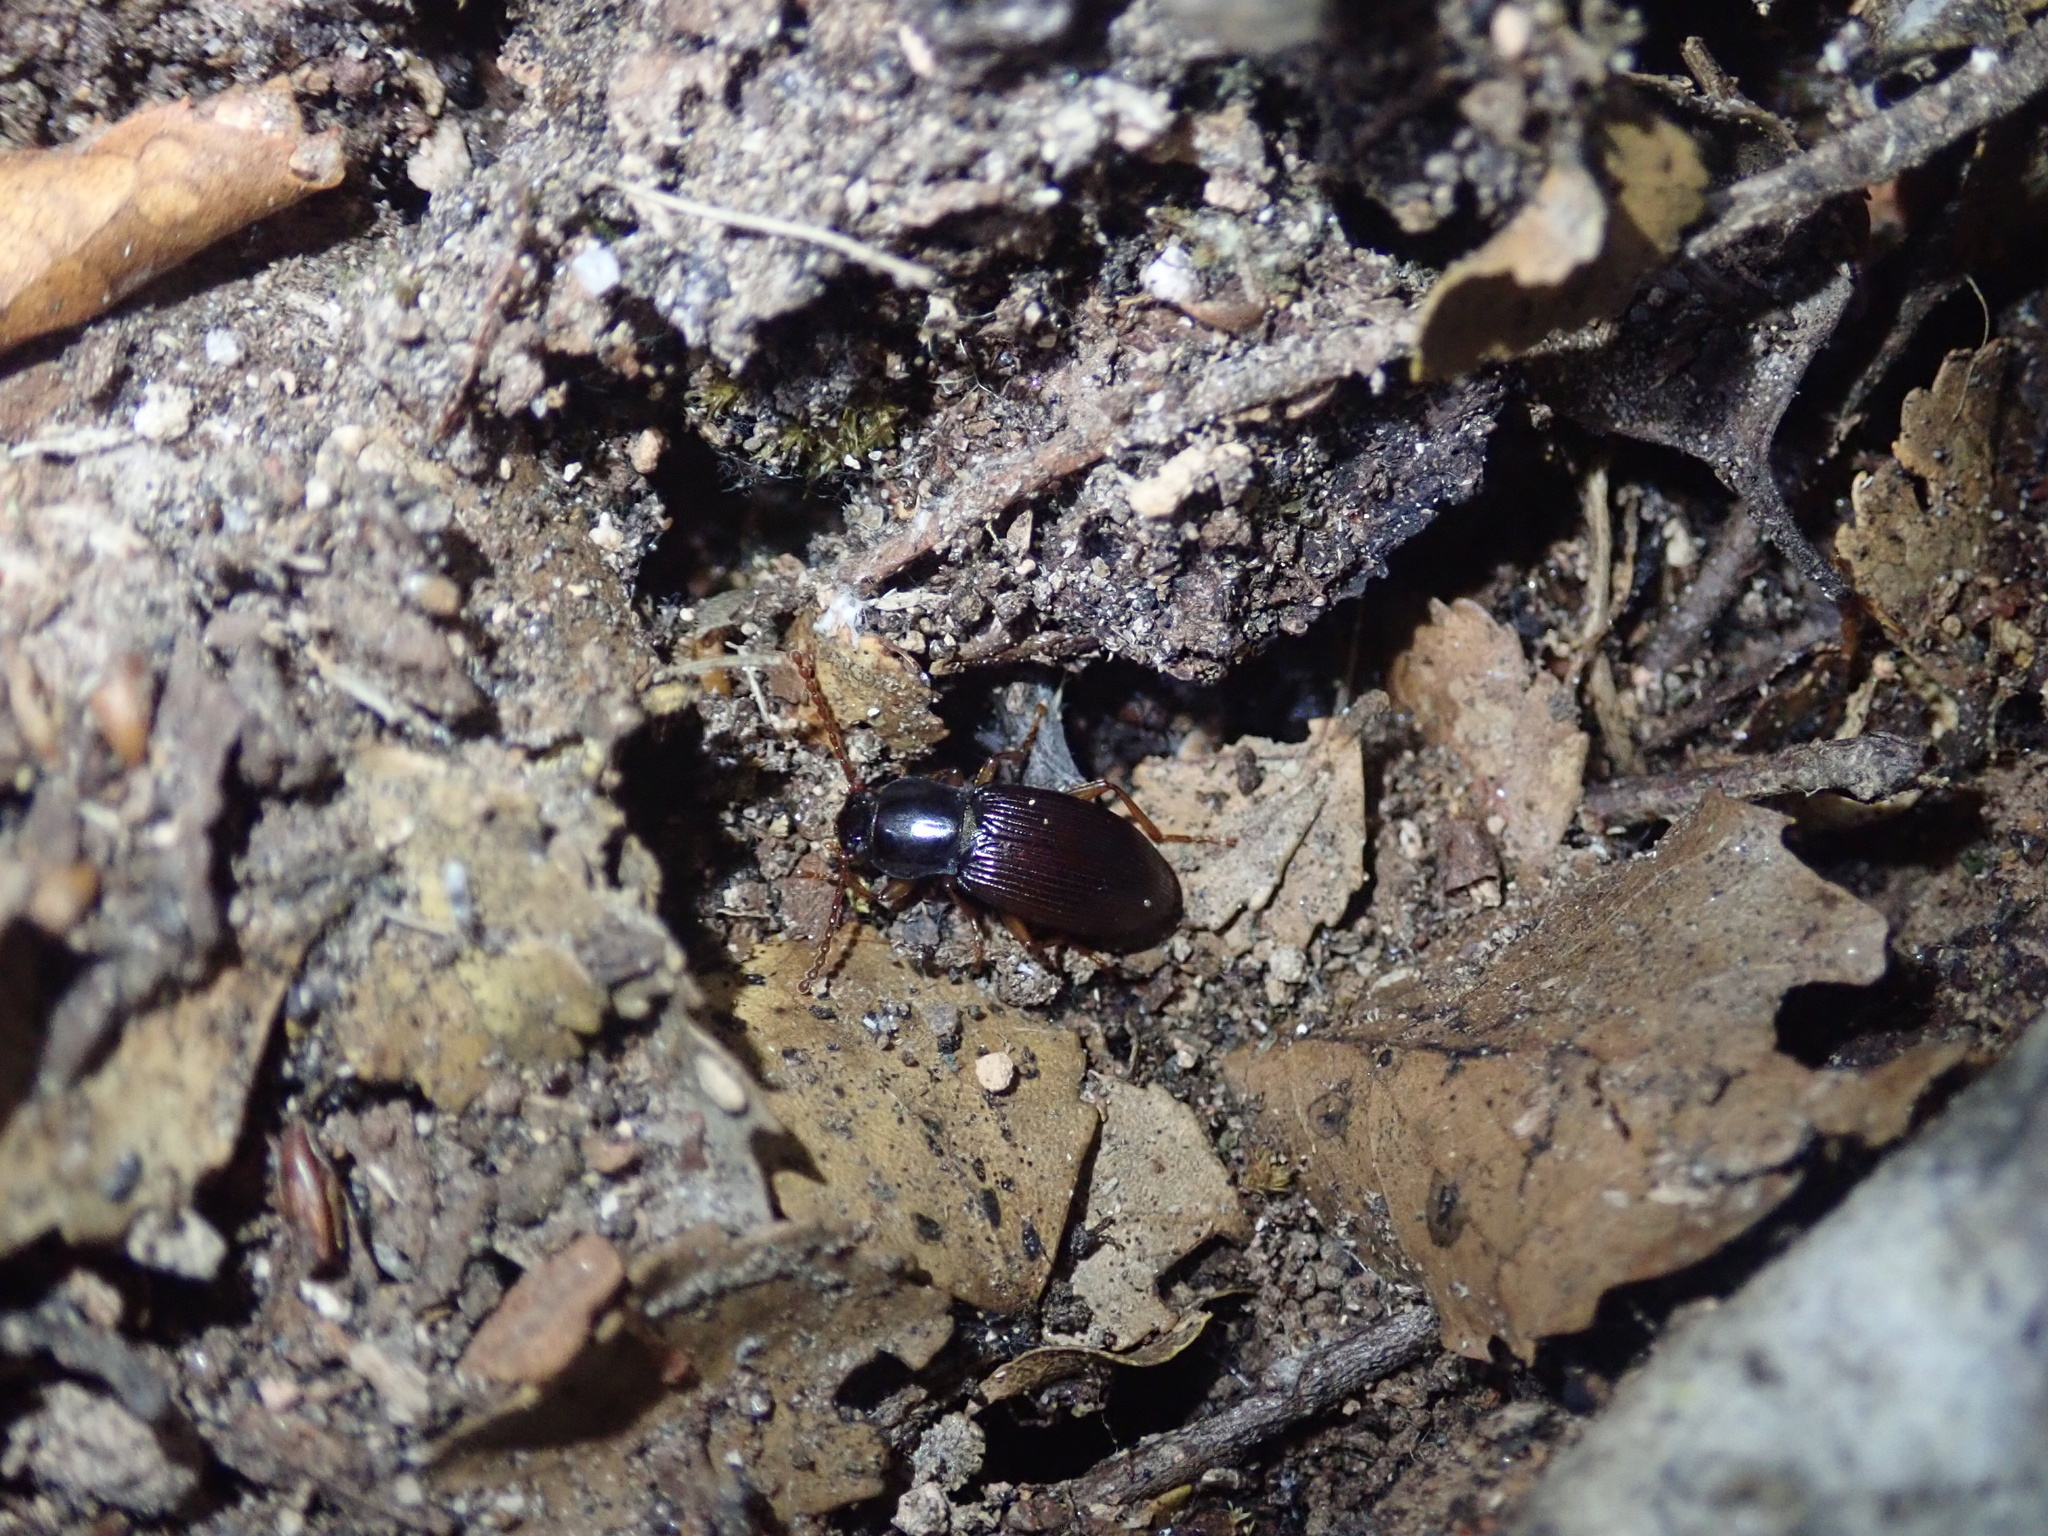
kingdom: Animalia
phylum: Arthropoda
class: Insecta
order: Coleoptera
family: Tenebrionidae
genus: Stenadelium
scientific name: Stenadelium striatum
